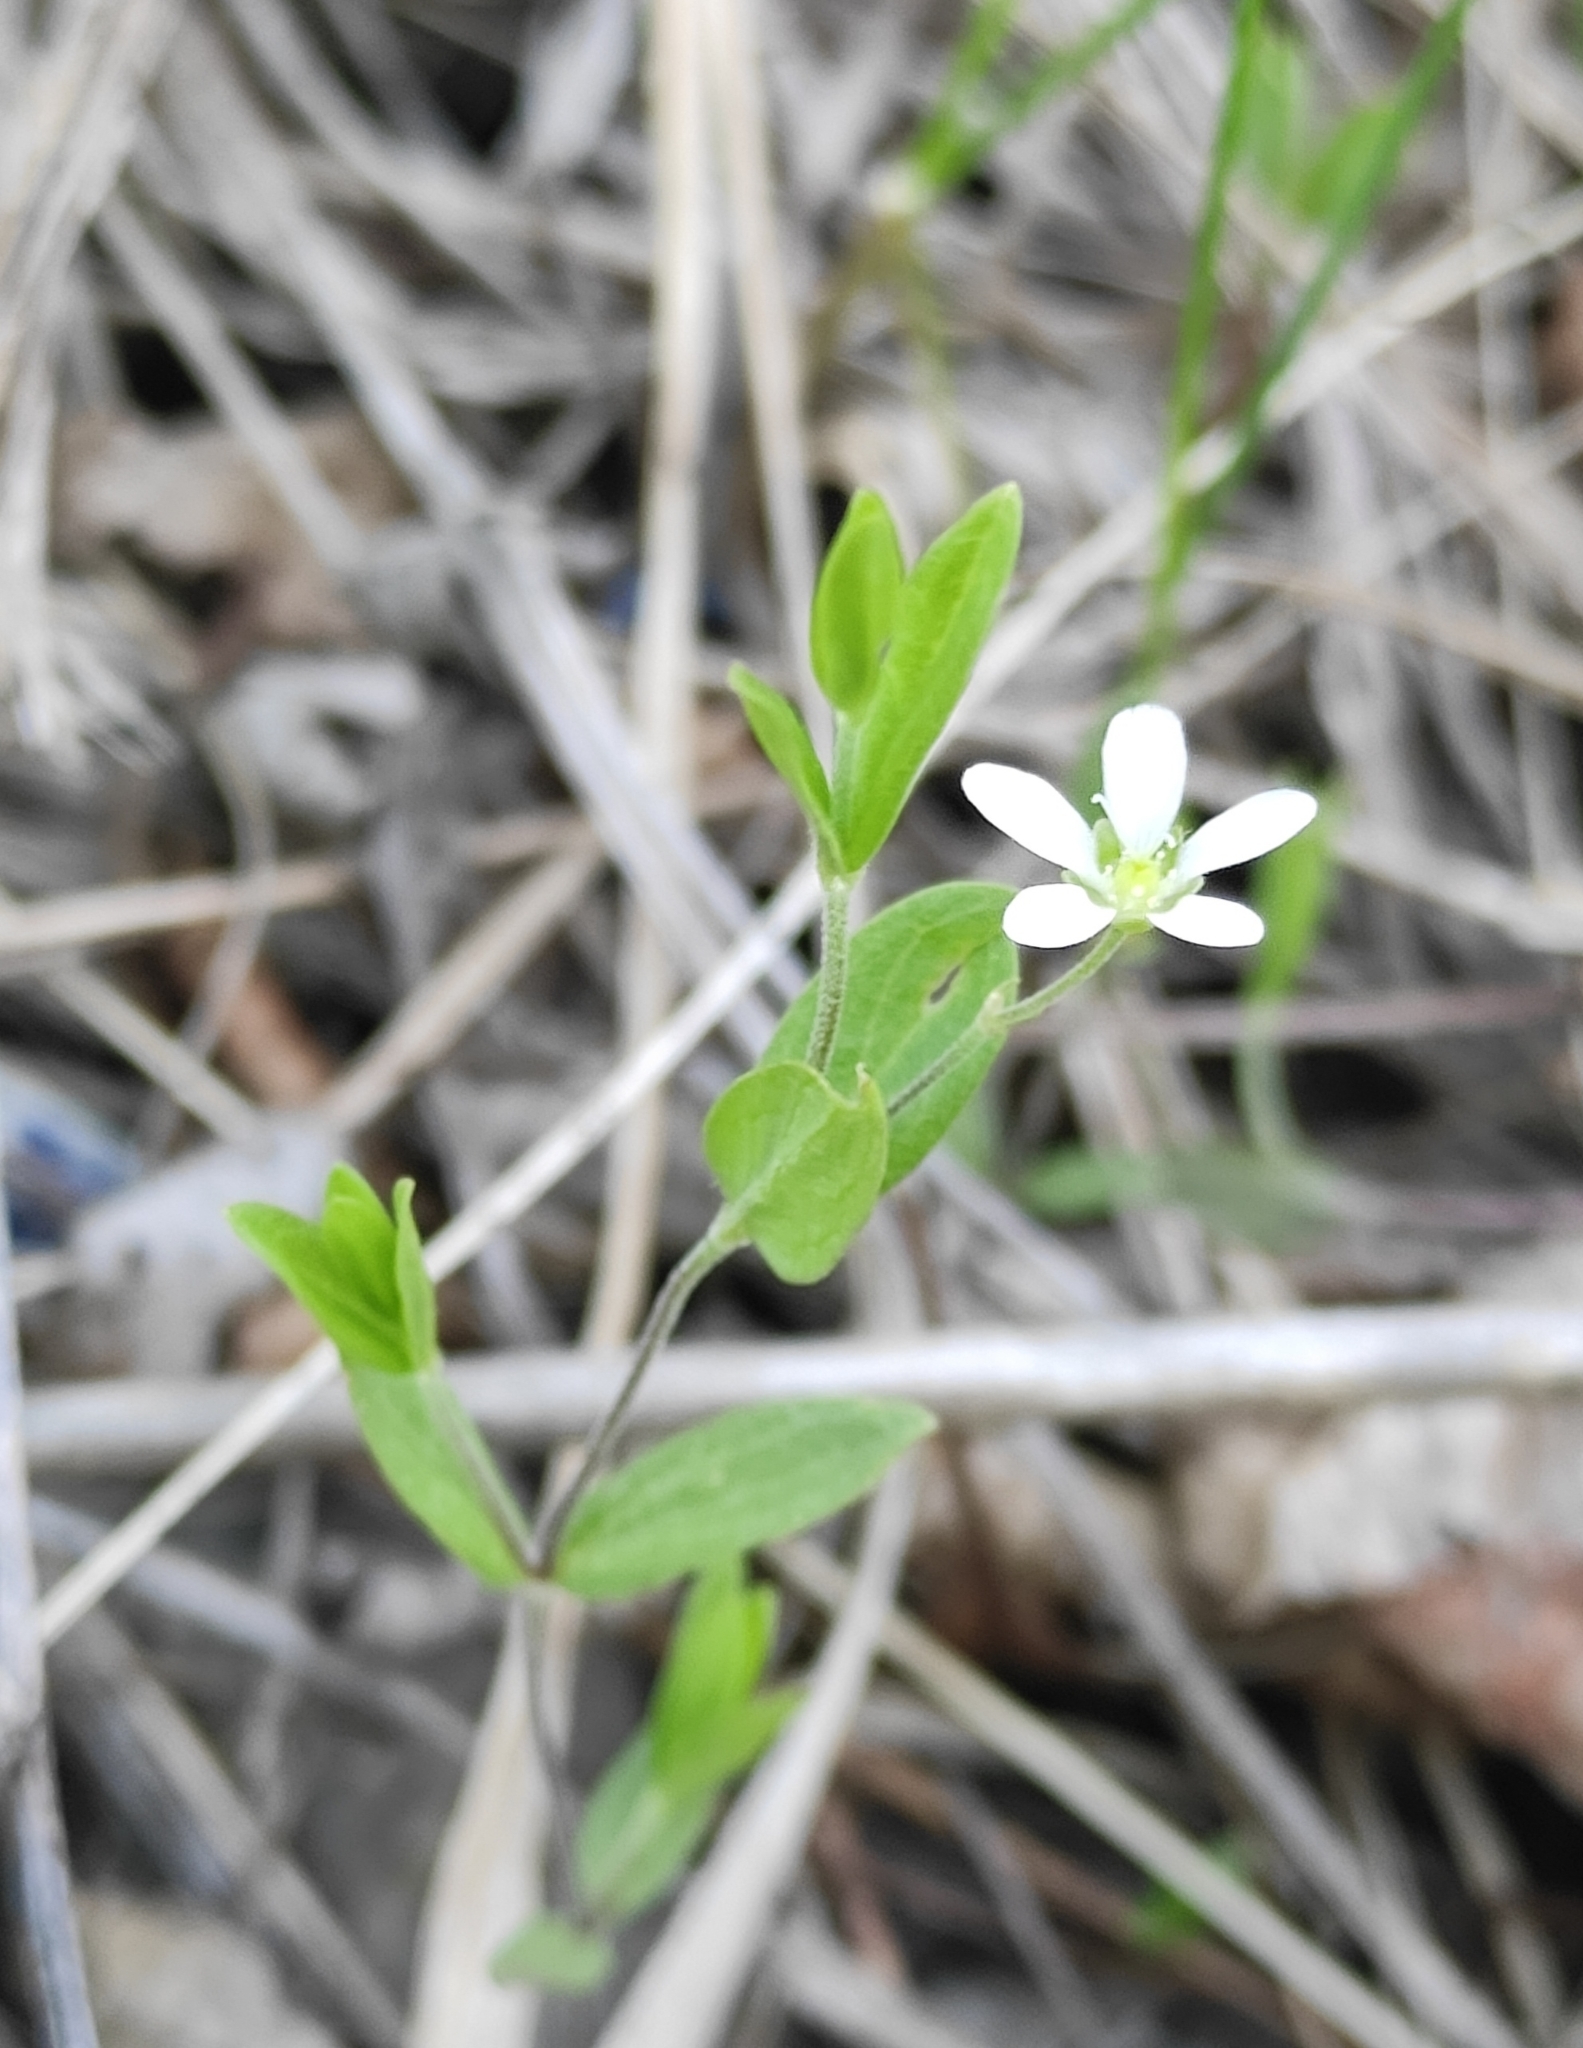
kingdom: Plantae
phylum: Tracheophyta
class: Magnoliopsida
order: Caryophyllales
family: Caryophyllaceae
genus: Moehringia
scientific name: Moehringia lateriflora
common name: Blunt-leaved sandwort
